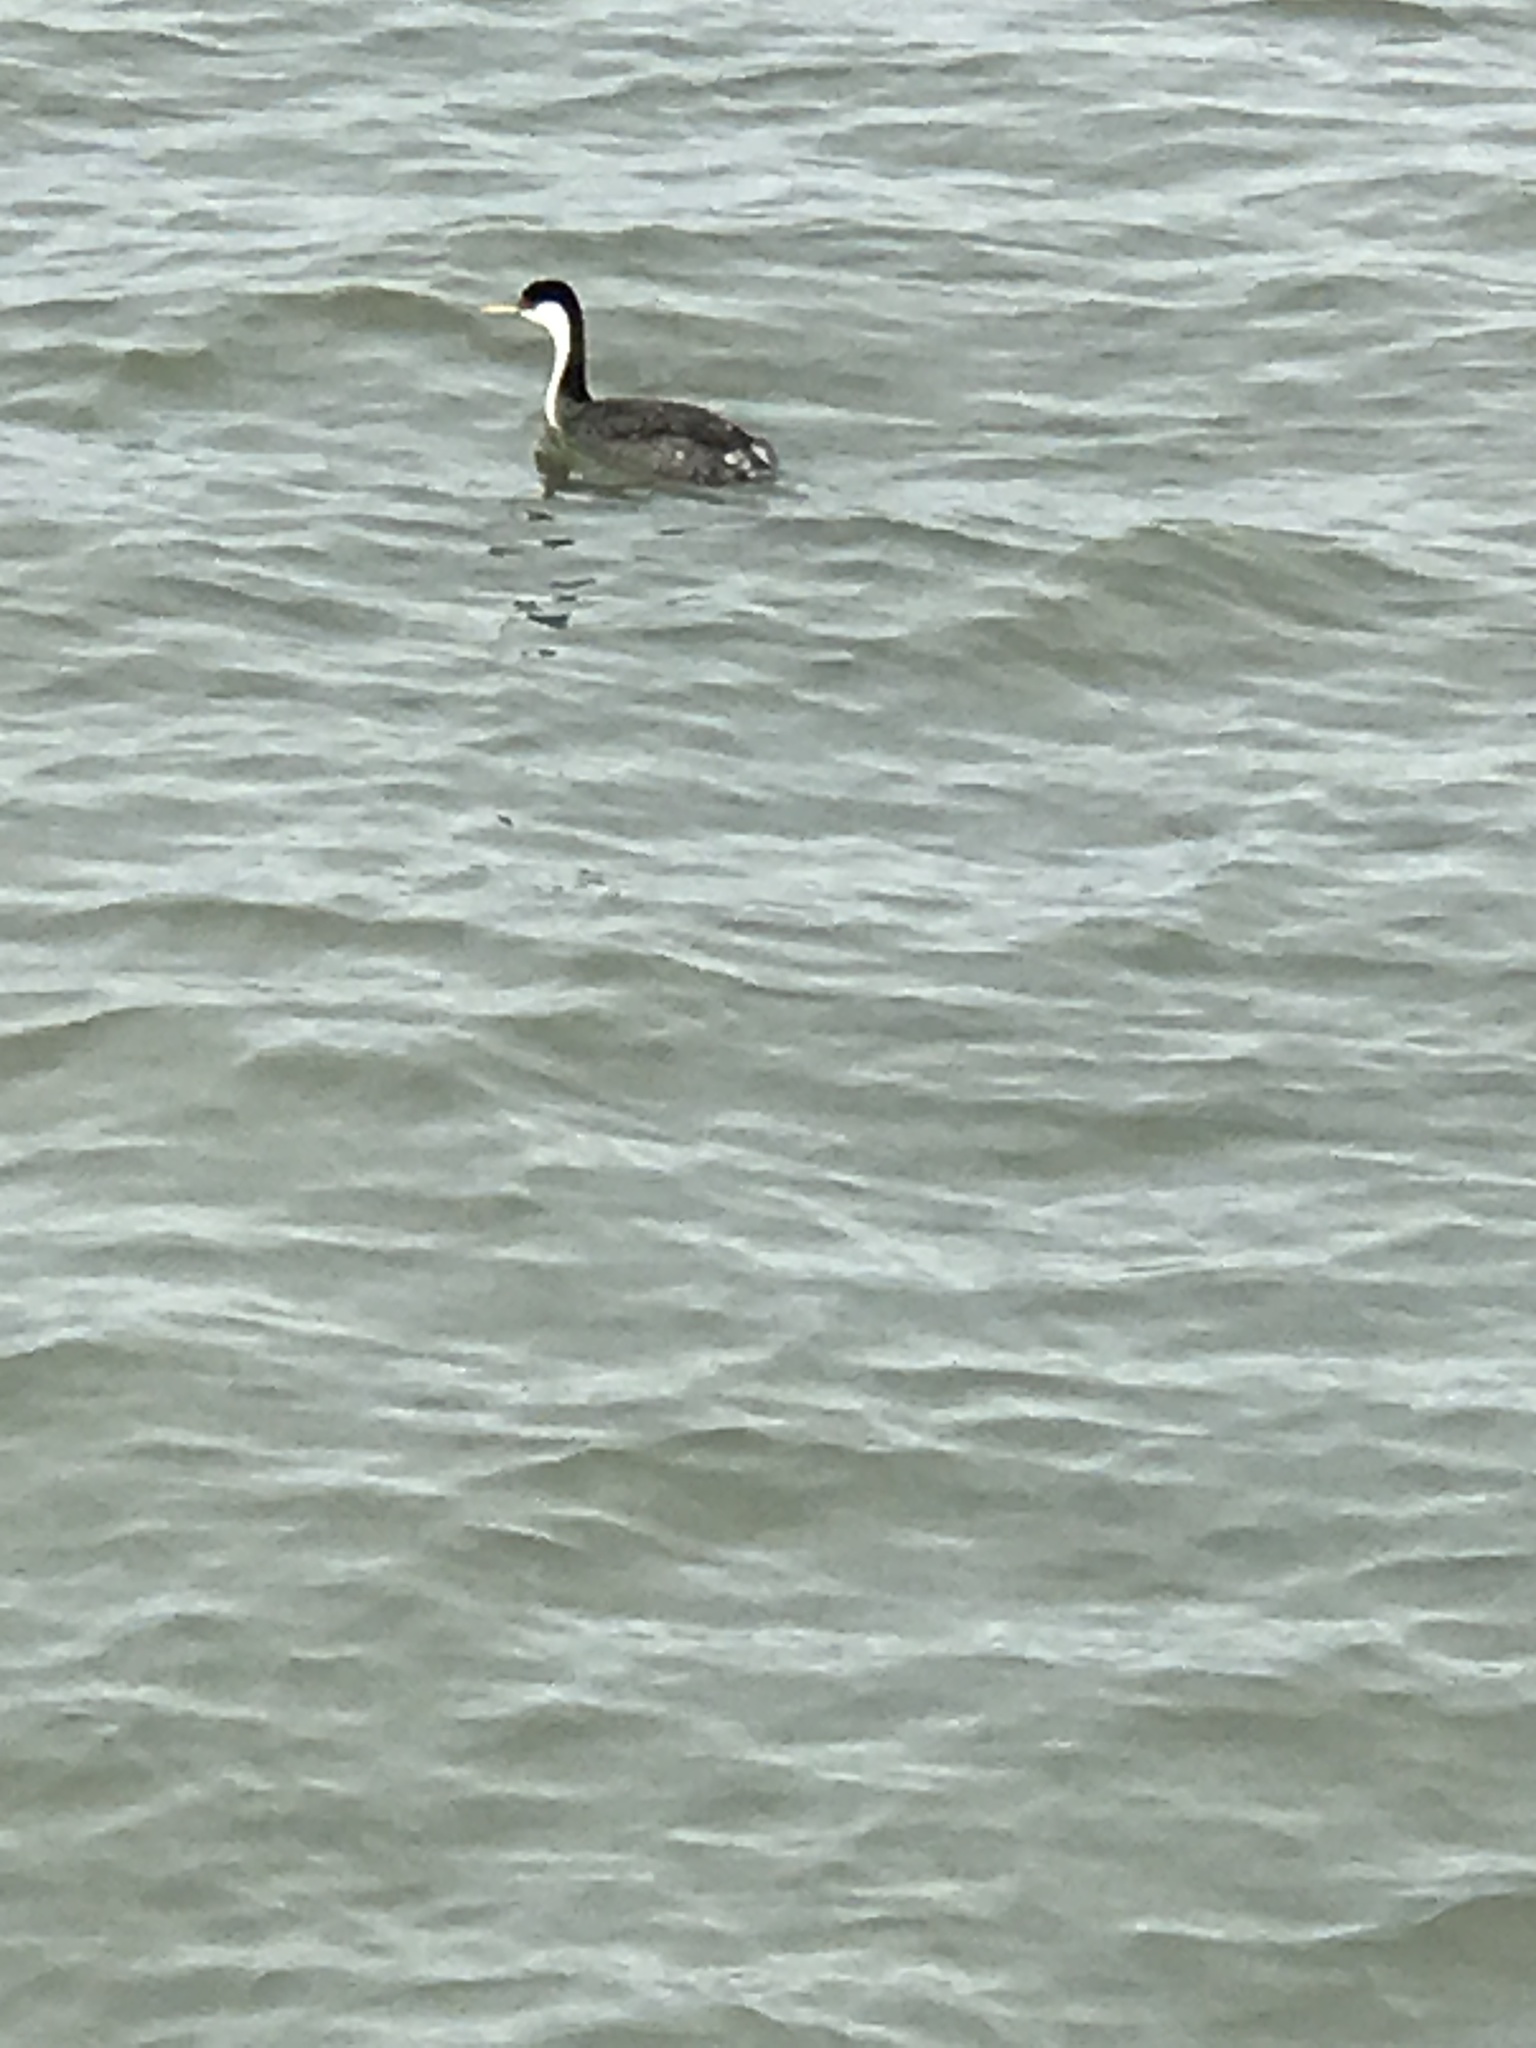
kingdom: Animalia
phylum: Chordata
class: Aves
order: Podicipediformes
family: Podicipedidae
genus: Aechmophorus
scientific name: Aechmophorus occidentalis
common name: Western grebe
